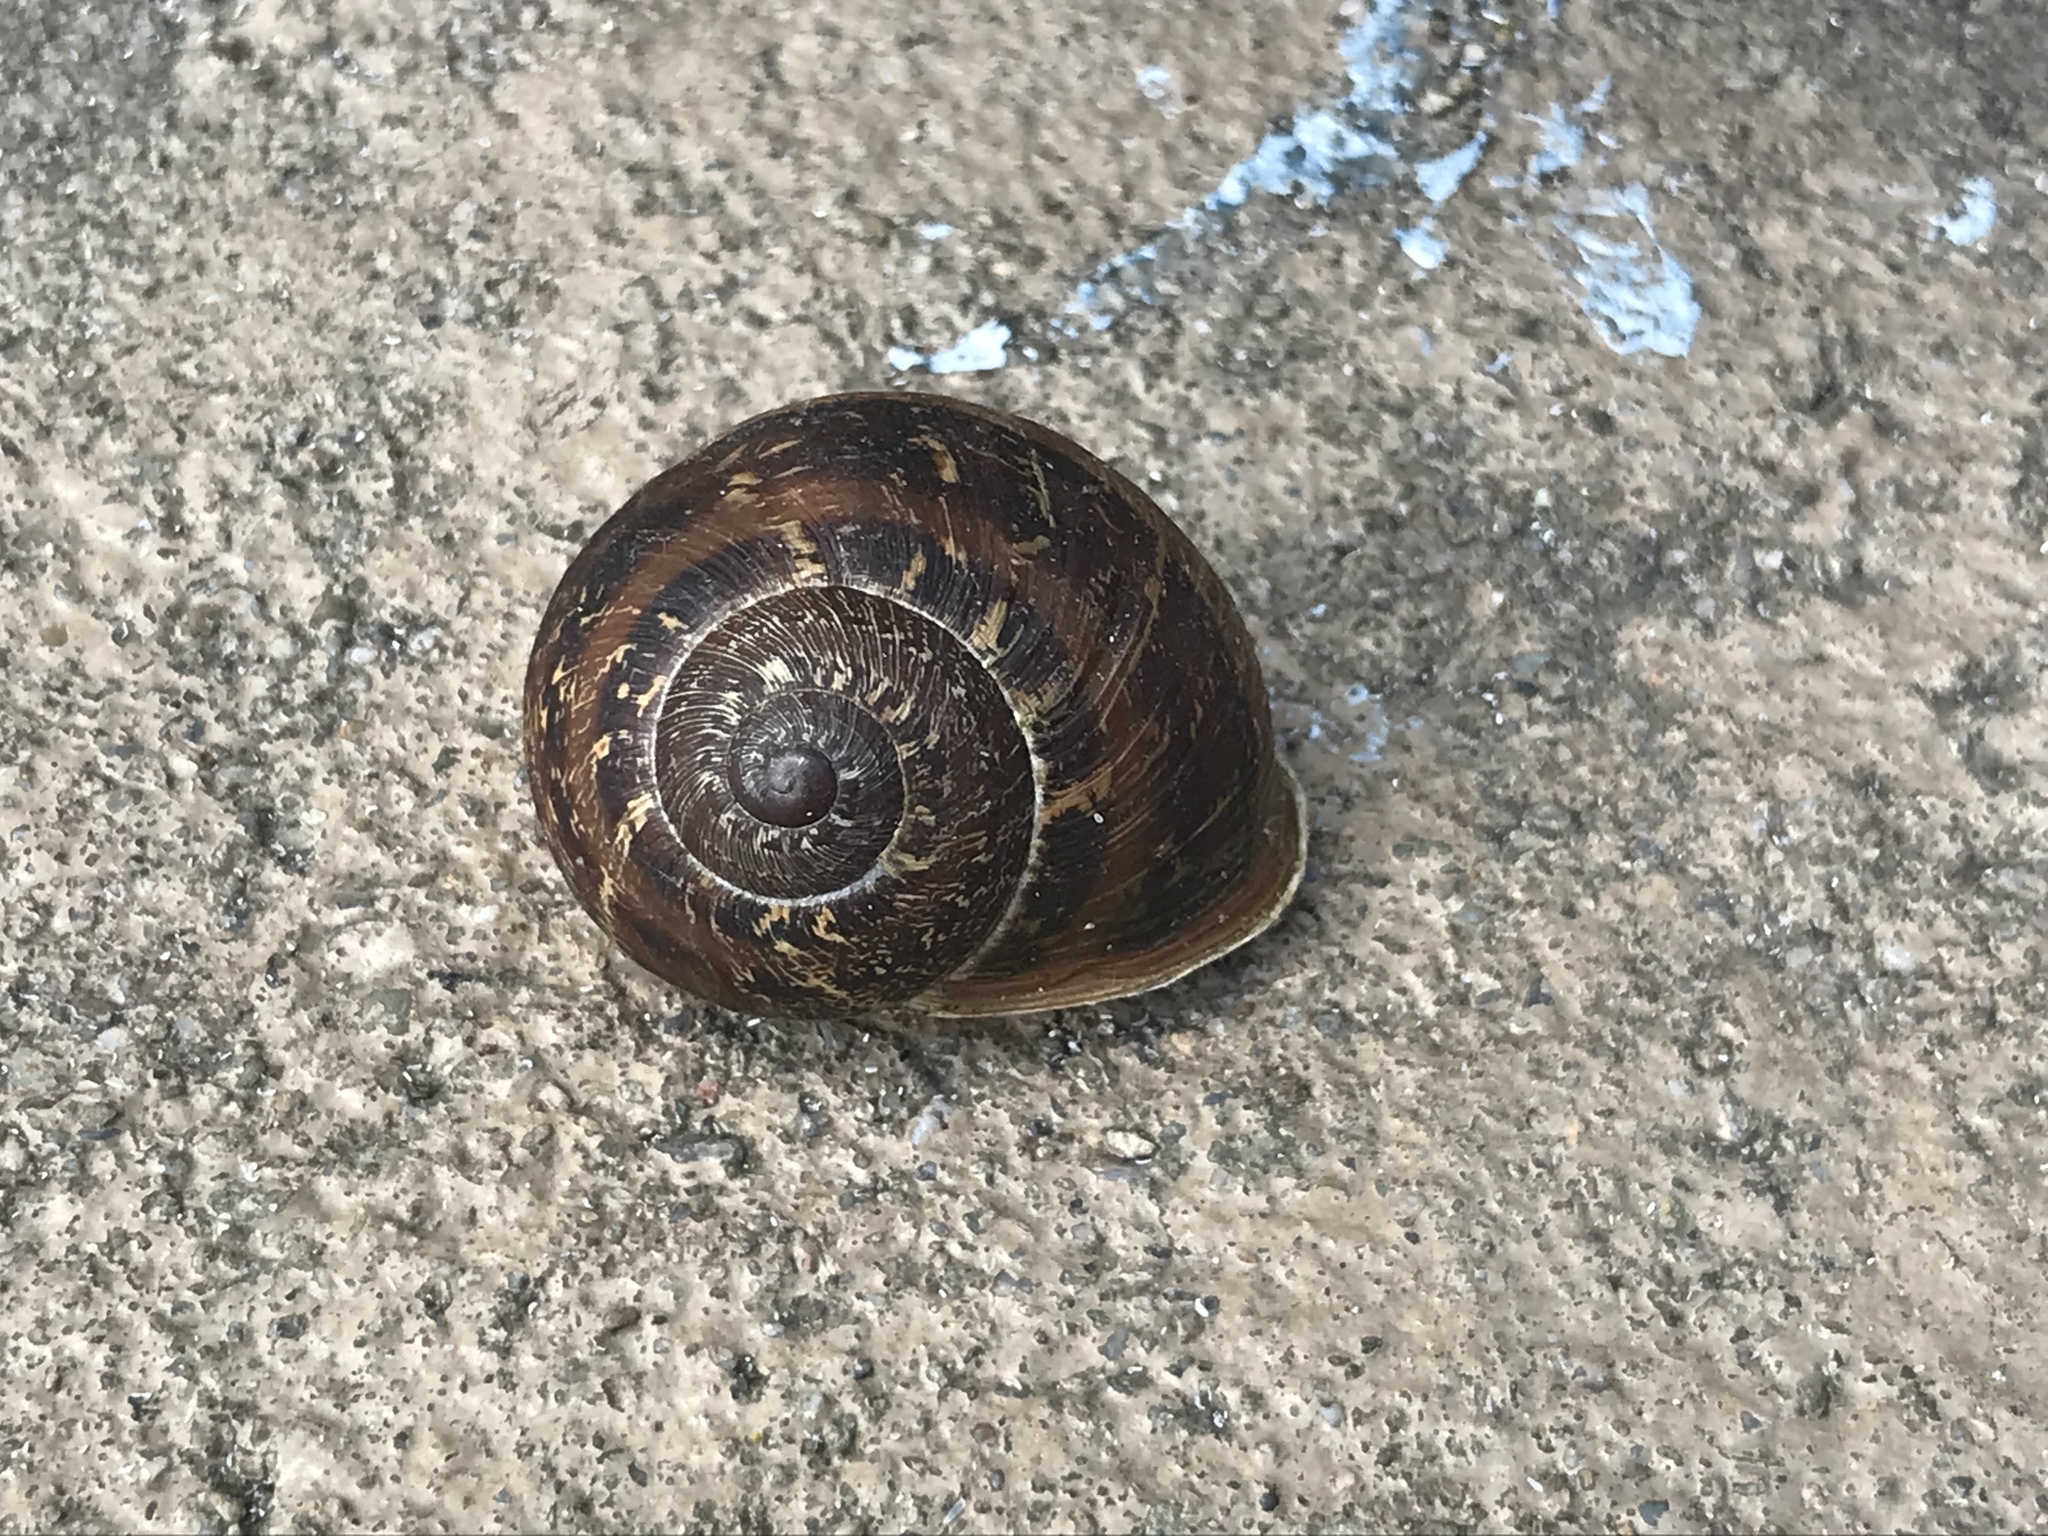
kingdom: Animalia
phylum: Mollusca
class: Gastropoda
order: Stylommatophora
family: Helicidae
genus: Cornu
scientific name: Cornu aspersum
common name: Brown garden snail
